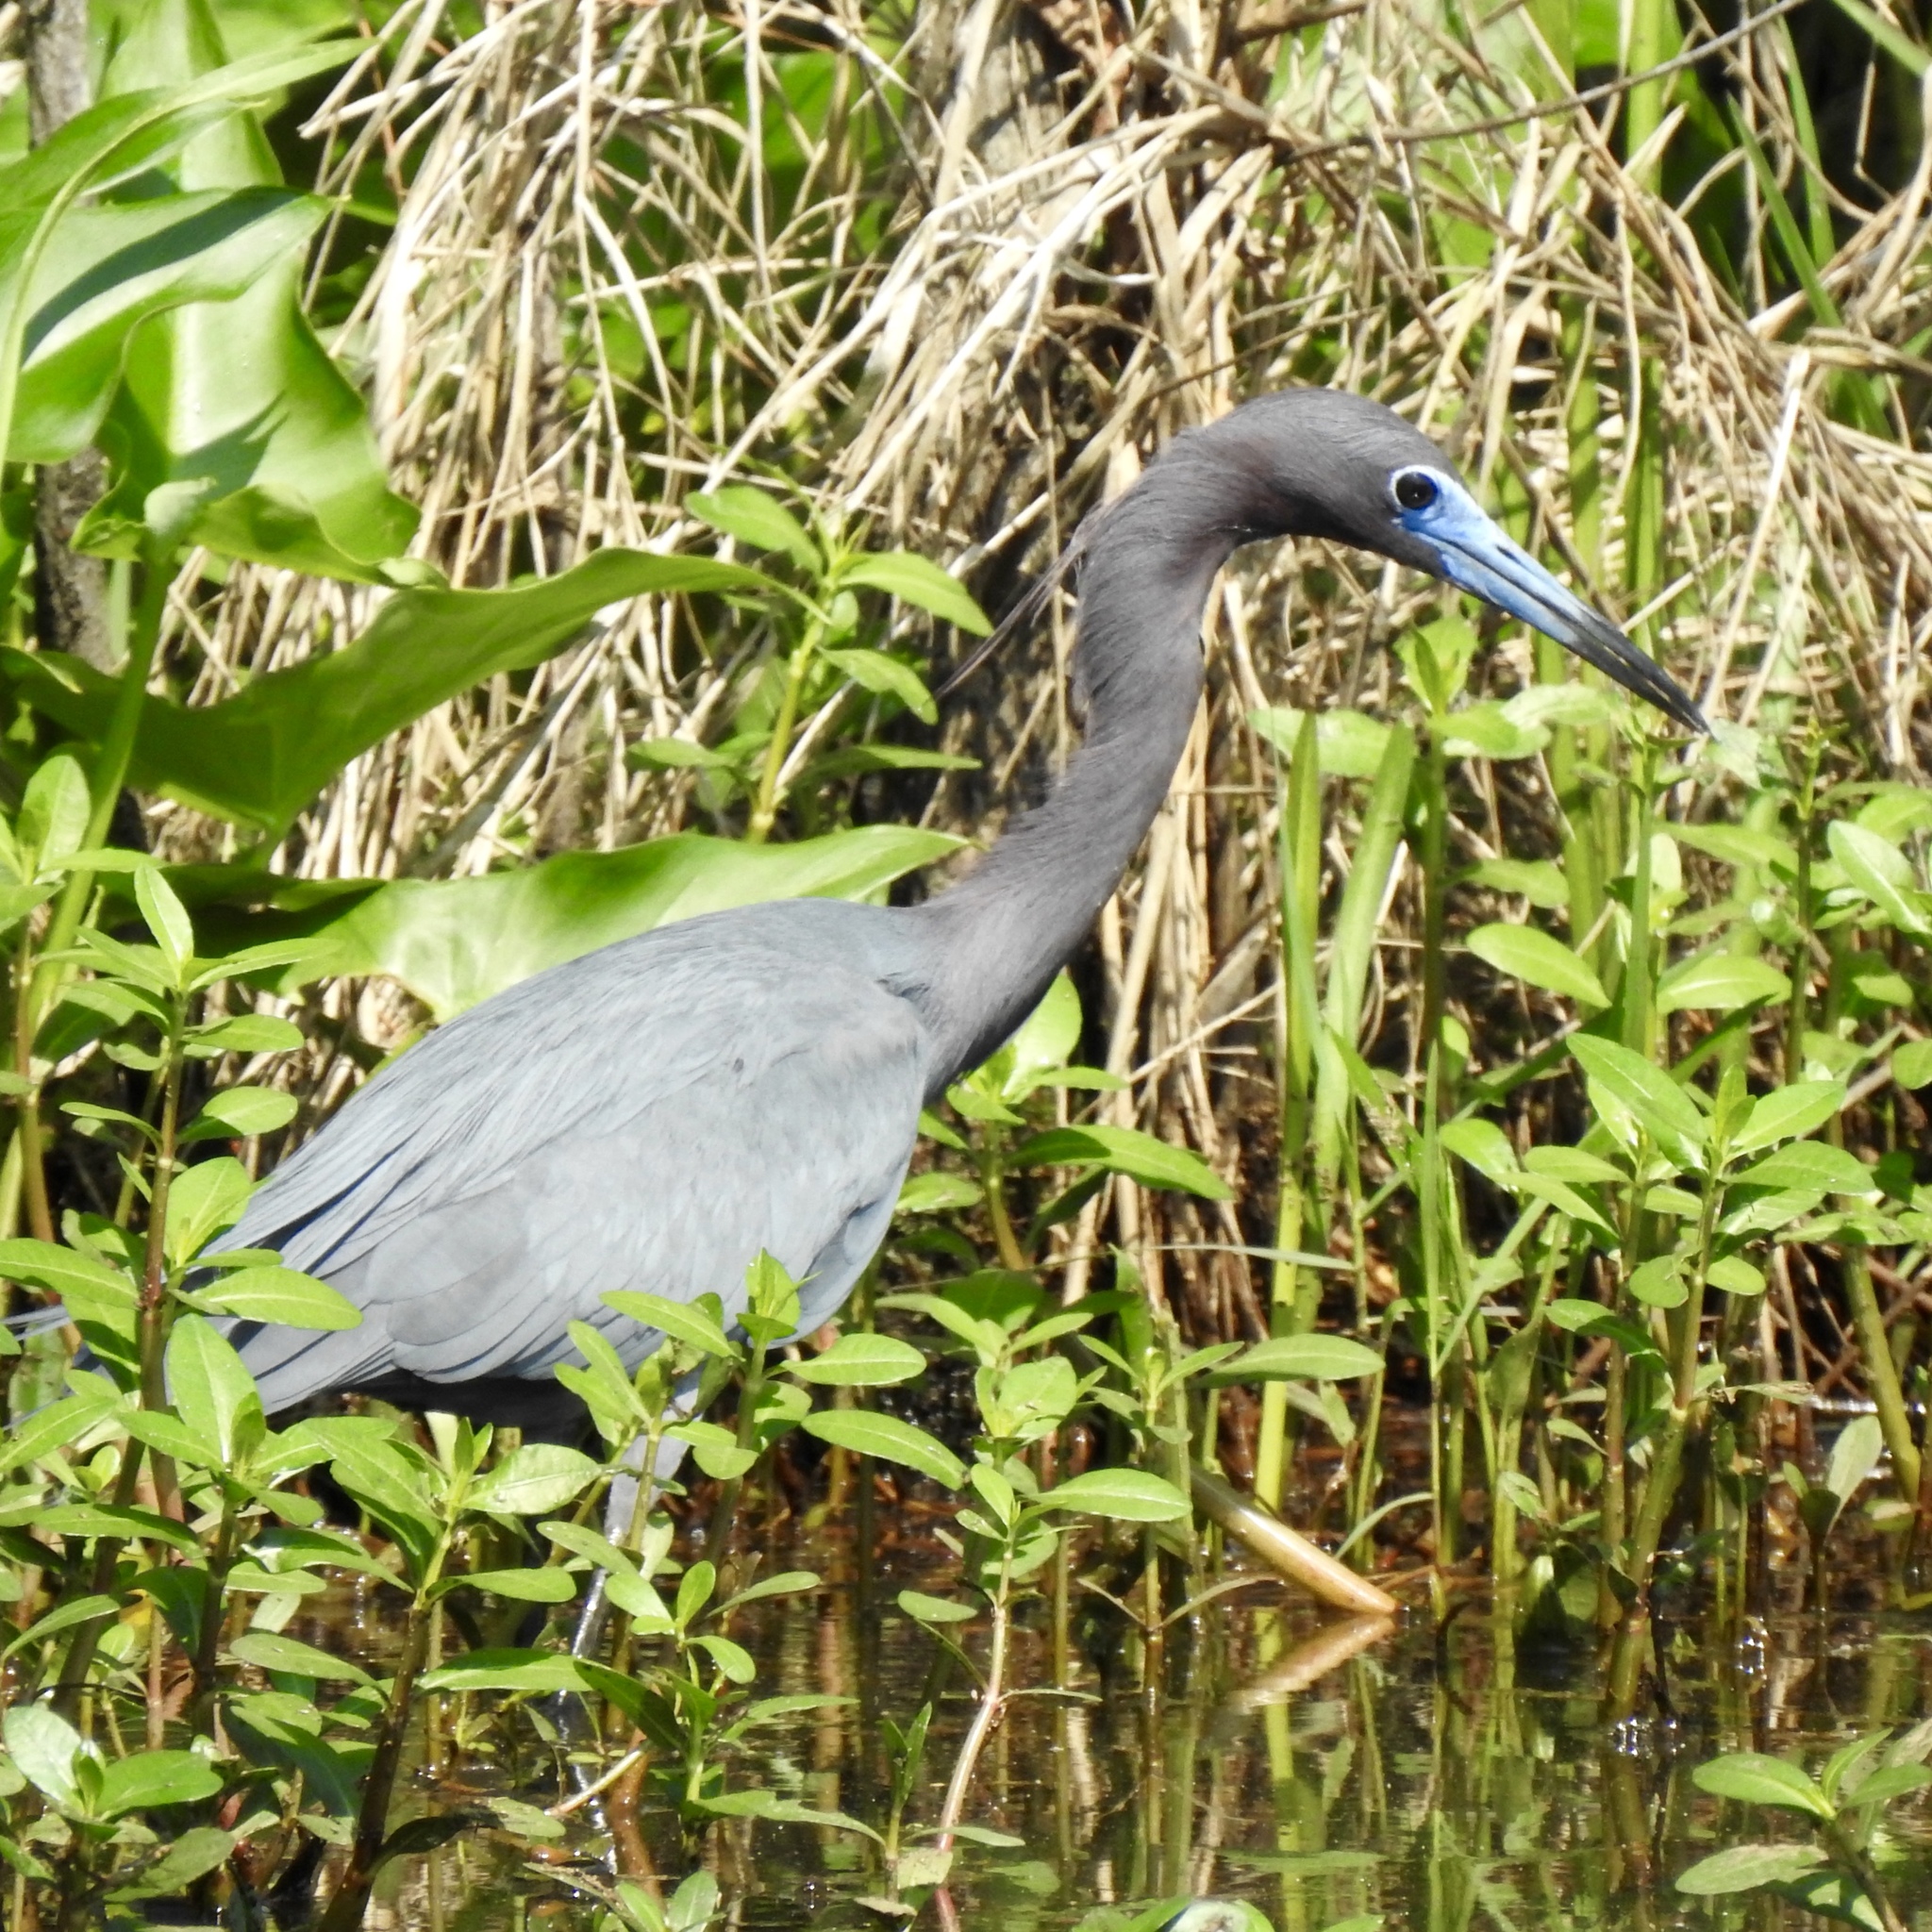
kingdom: Animalia
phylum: Chordata
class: Aves
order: Pelecaniformes
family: Ardeidae
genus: Egretta
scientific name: Egretta caerulea
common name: Little blue heron
